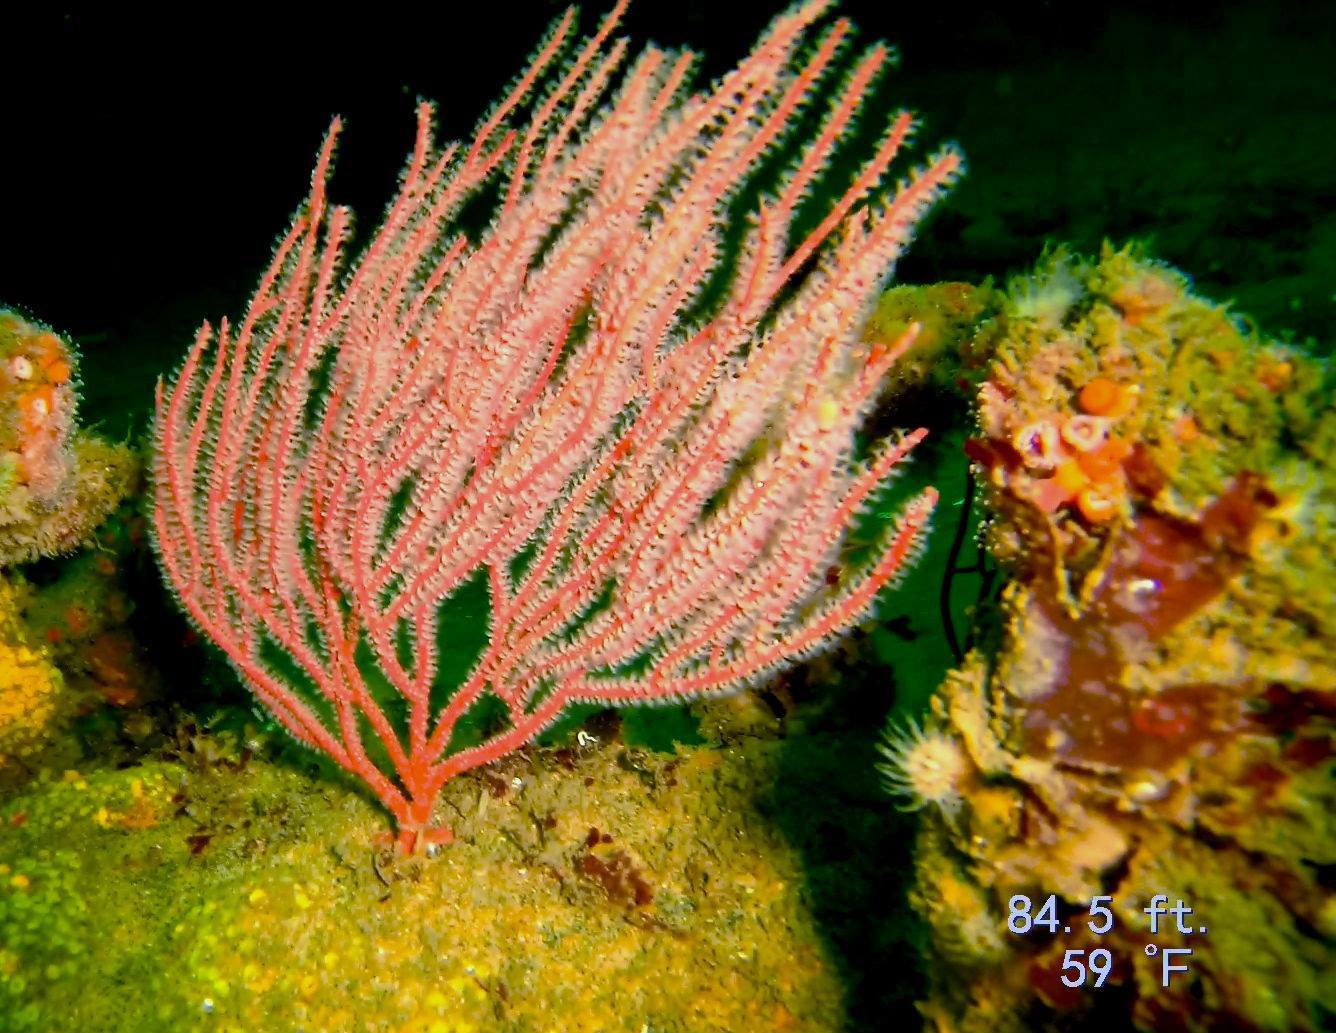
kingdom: Animalia
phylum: Cnidaria
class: Anthozoa
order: Malacalcyonacea
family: Gorgoniidae
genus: Leptogorgia
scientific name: Leptogorgia chilensis
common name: Carmine sea spray
